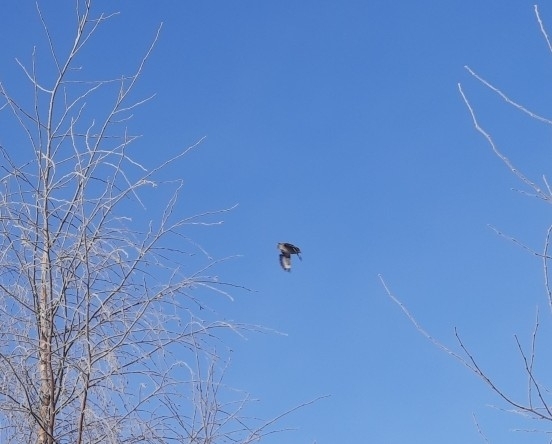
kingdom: Animalia
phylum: Chordata
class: Aves
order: Passeriformes
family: Fringillidae
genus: Coccothraustes
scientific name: Coccothraustes coccothraustes
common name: Hawfinch
